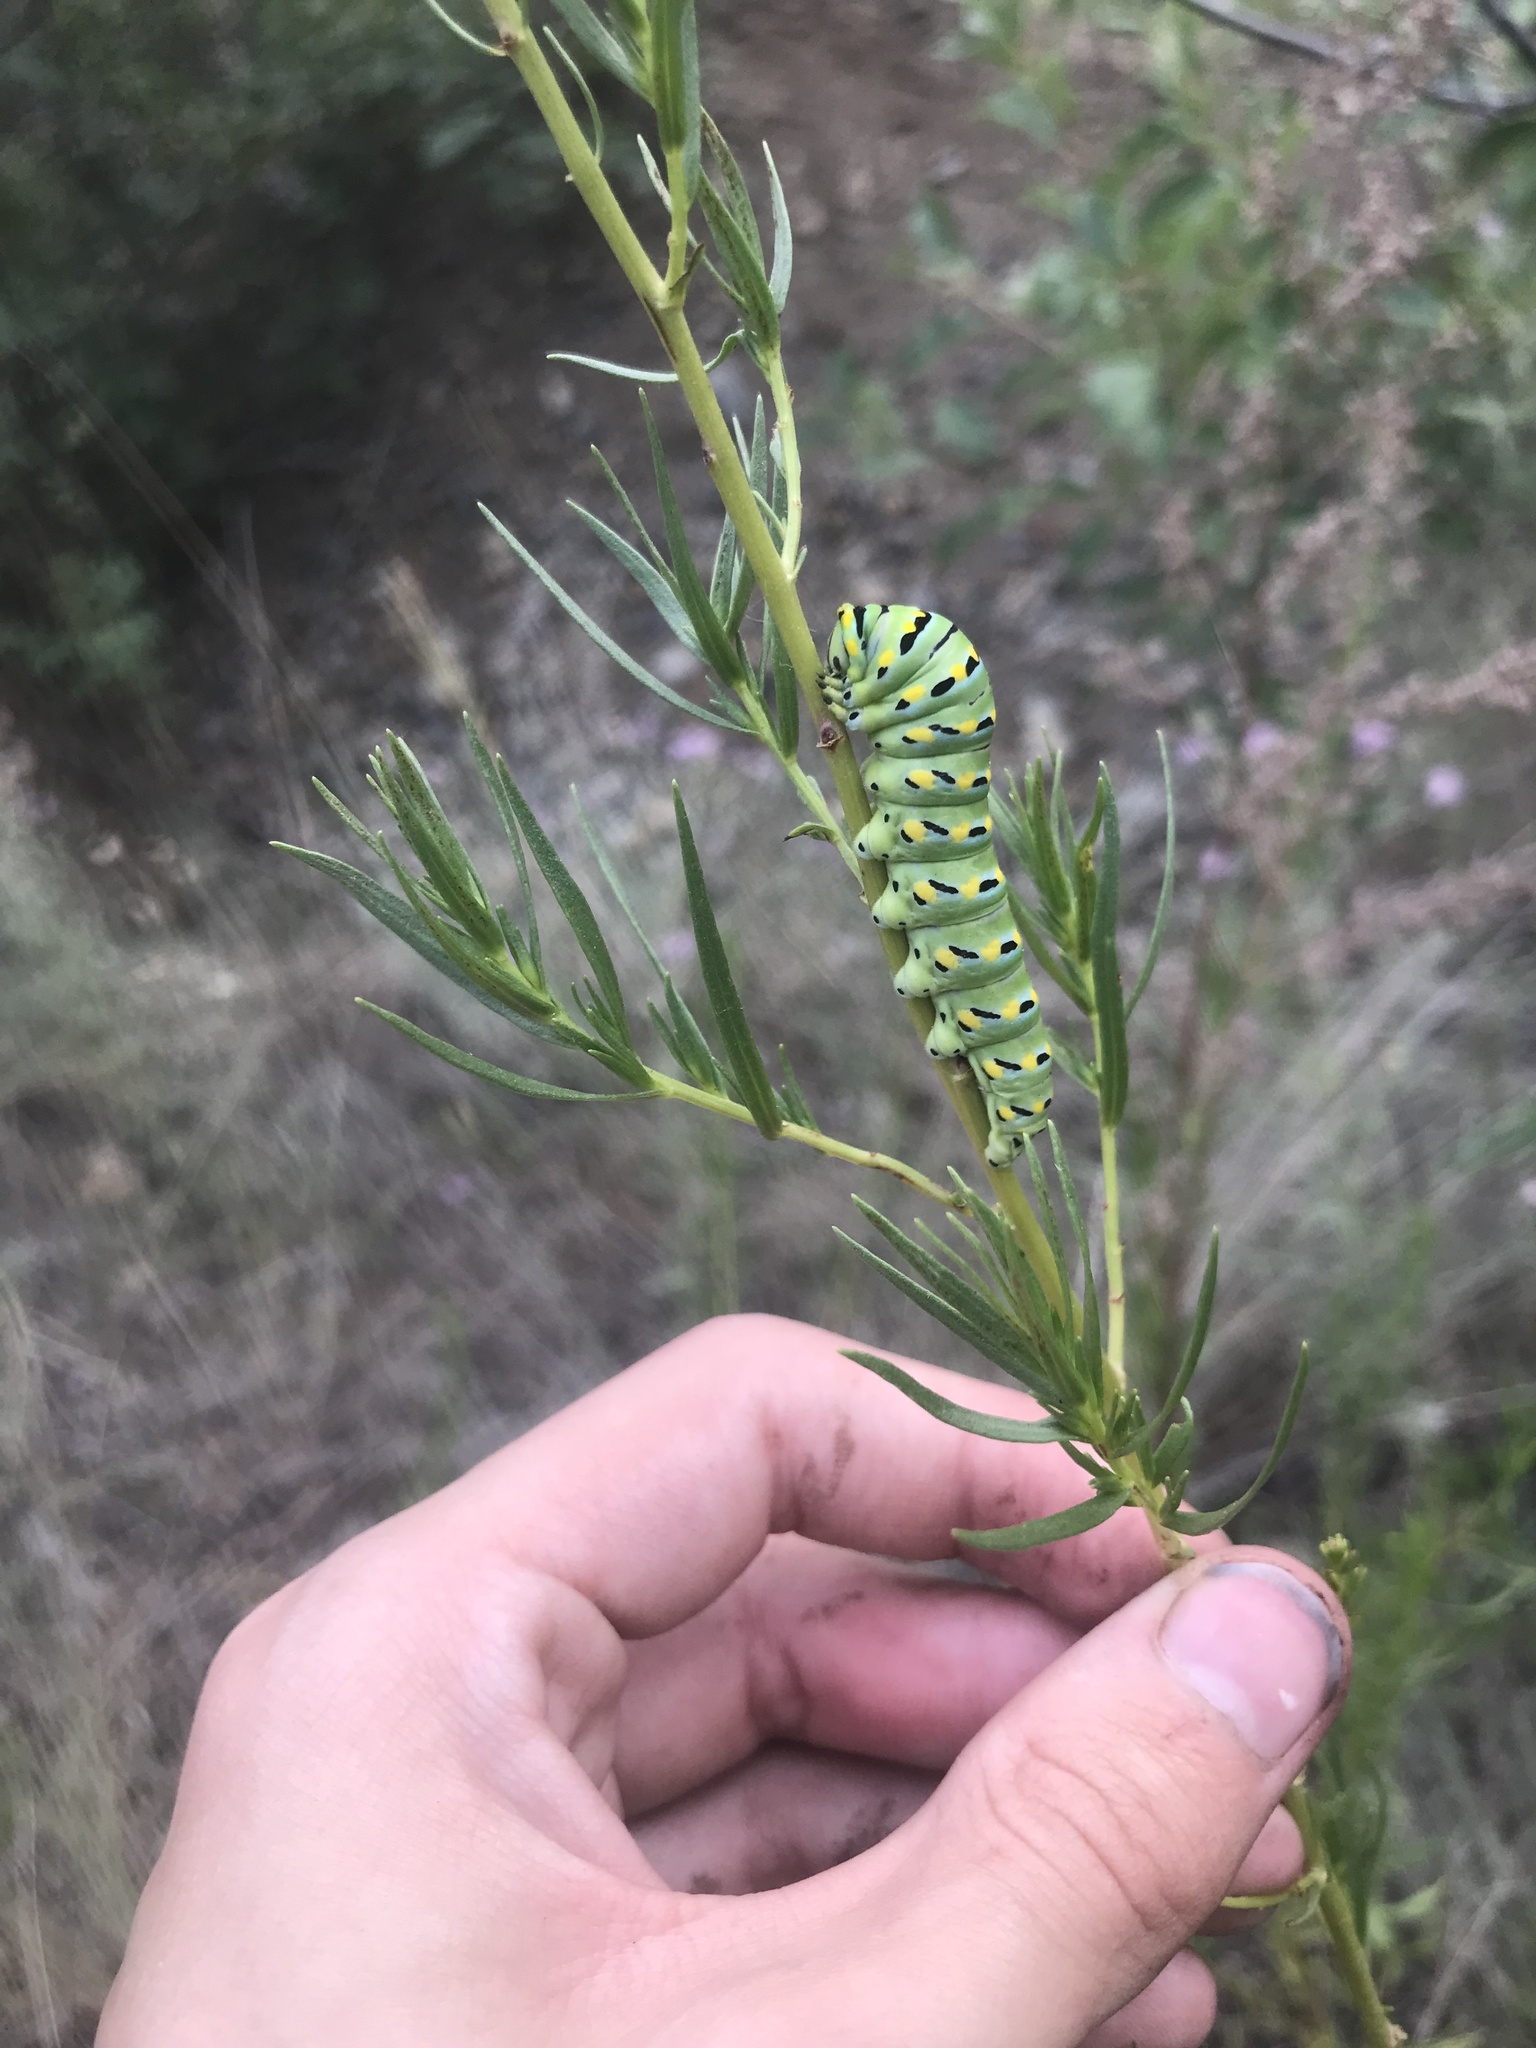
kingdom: Animalia
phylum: Arthropoda
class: Insecta
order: Lepidoptera
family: Papilionidae
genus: Papilio
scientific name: Papilio
